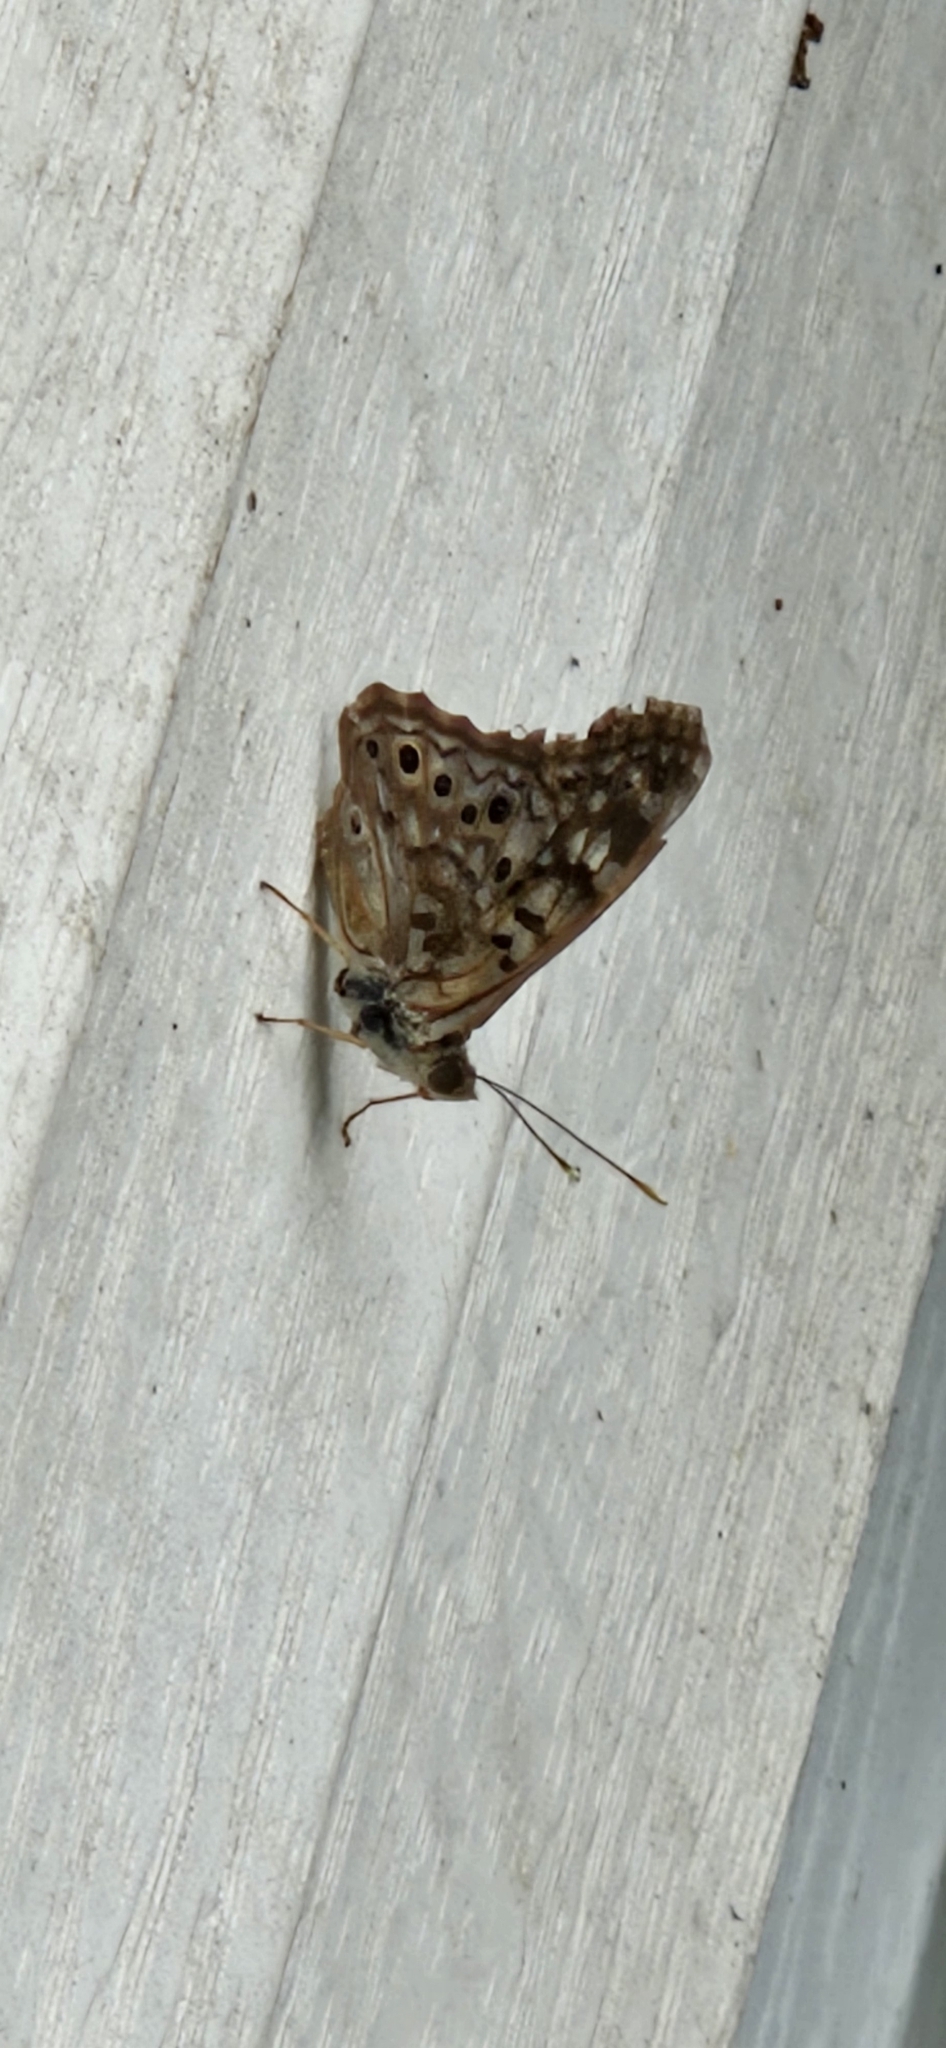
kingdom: Animalia
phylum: Arthropoda
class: Insecta
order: Lepidoptera
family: Nymphalidae
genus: Asterocampa
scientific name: Asterocampa celtis
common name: Hackberry emperor
